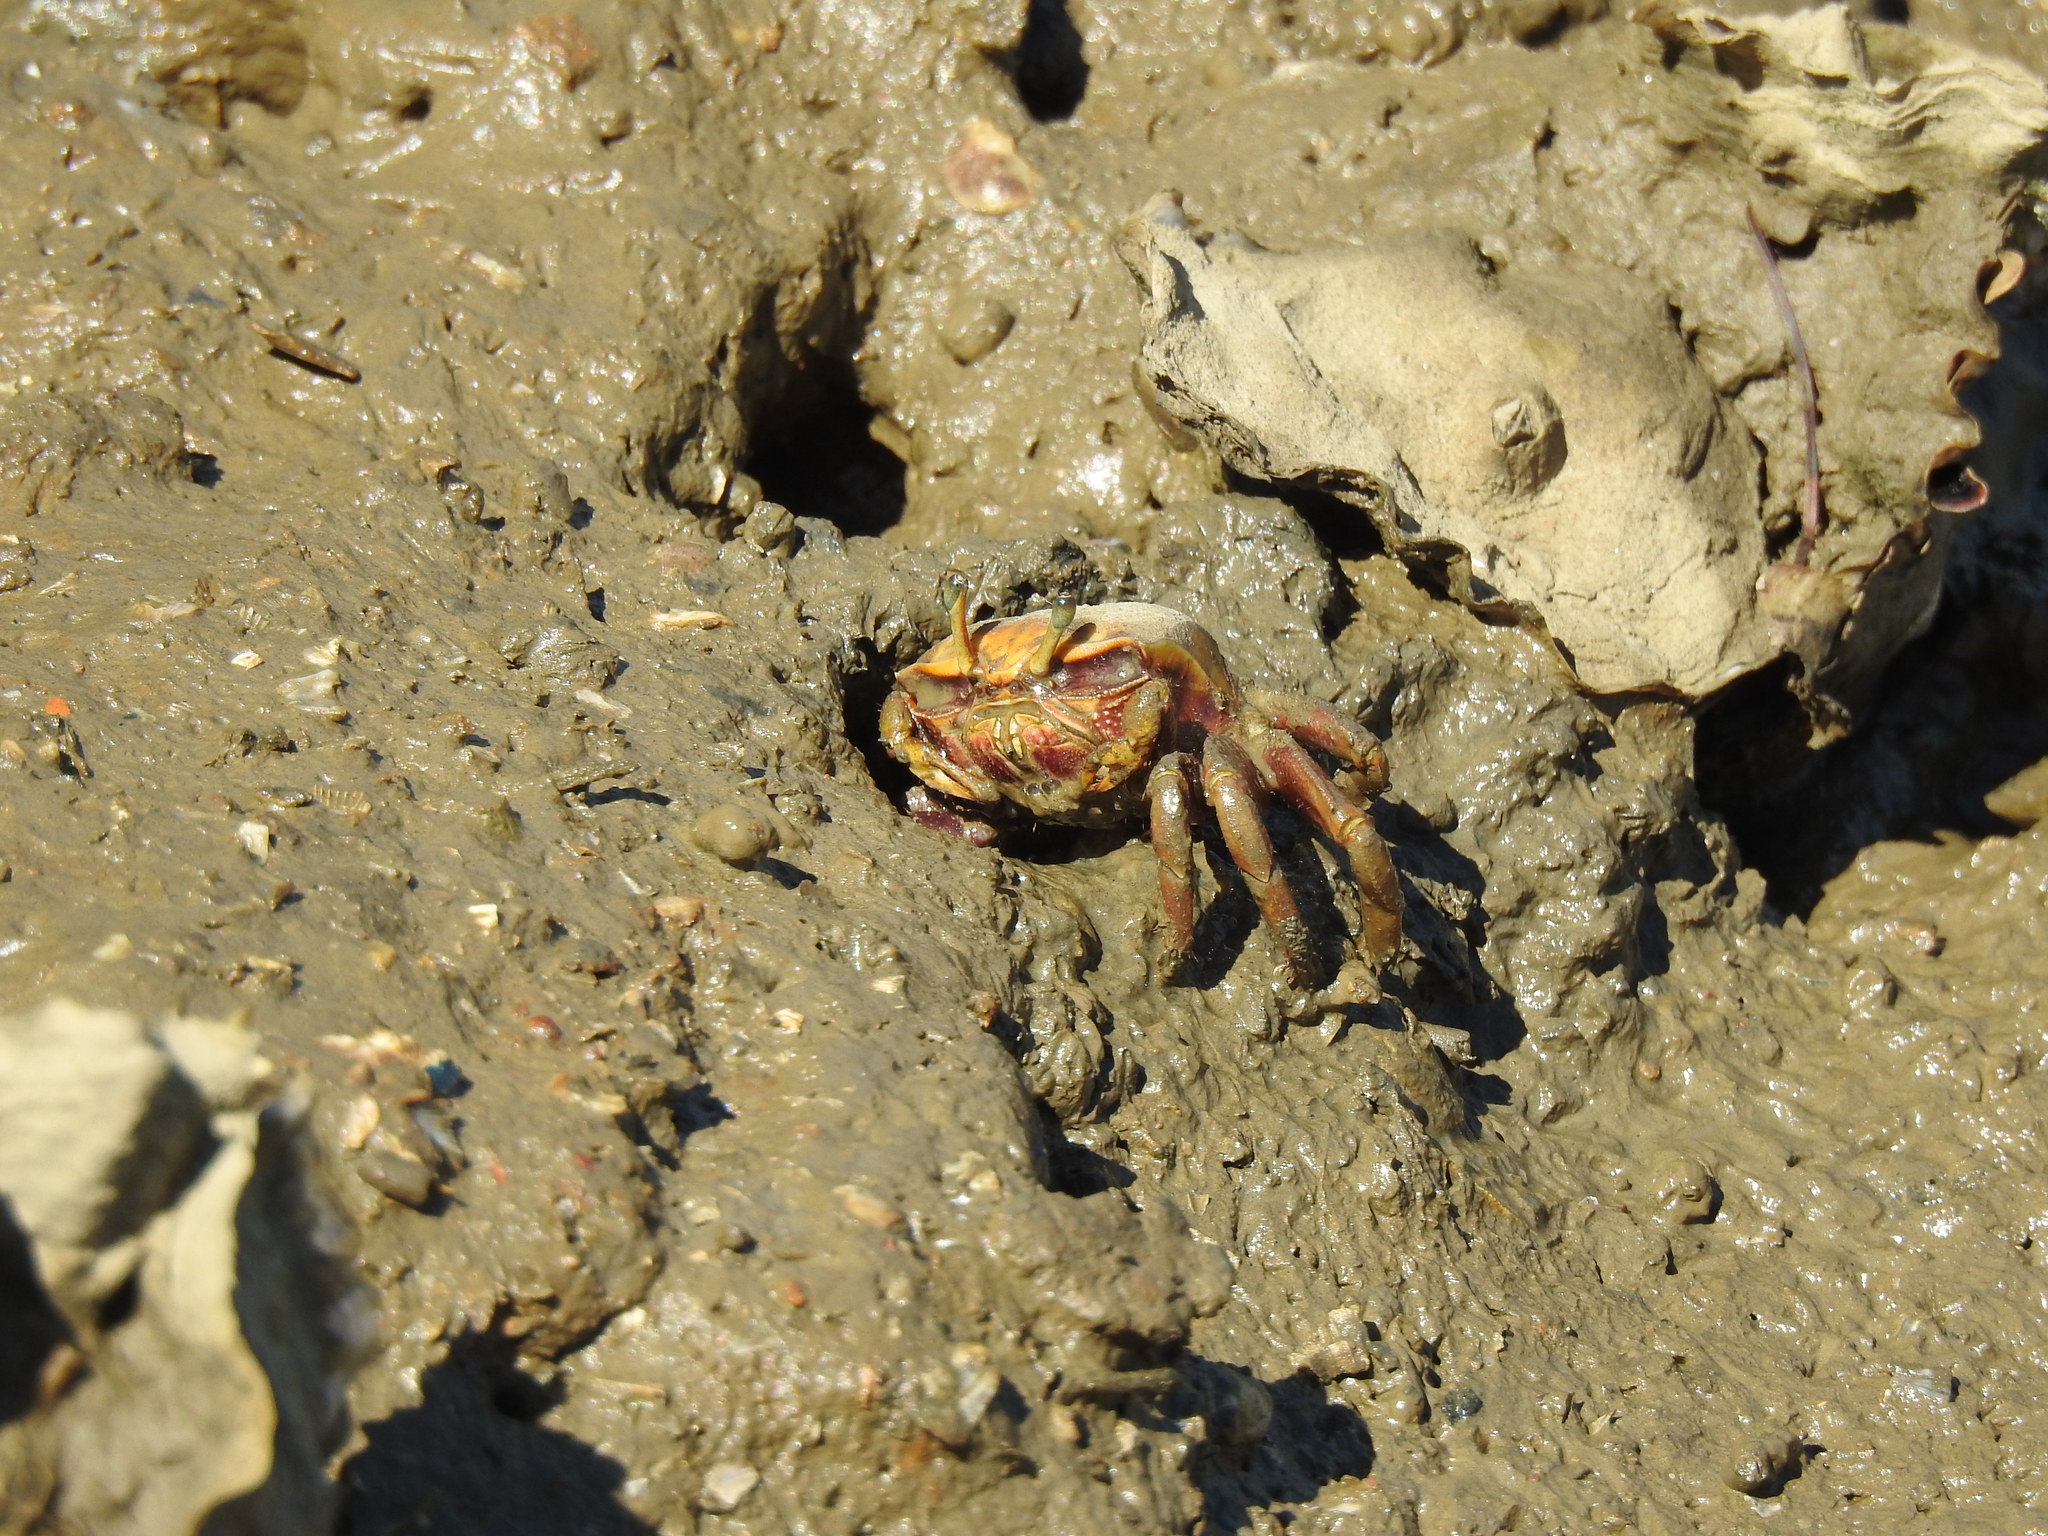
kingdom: Animalia
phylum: Arthropoda
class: Malacostraca
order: Decapoda
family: Ocypodidae
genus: Afruca
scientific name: Afruca tangeri
